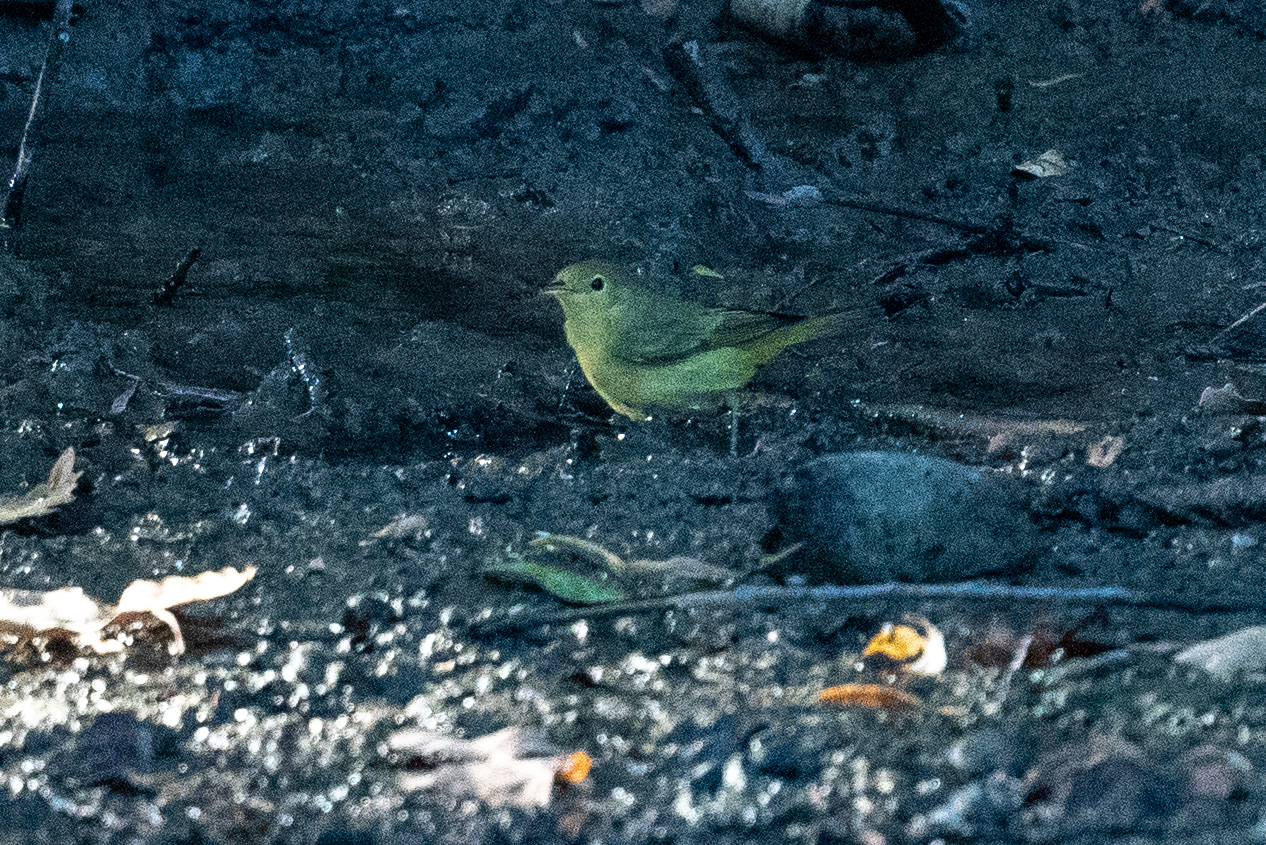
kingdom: Animalia
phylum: Chordata
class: Aves
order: Passeriformes
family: Parulidae
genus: Setophaga
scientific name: Setophaga petechia
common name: Yellow warbler
